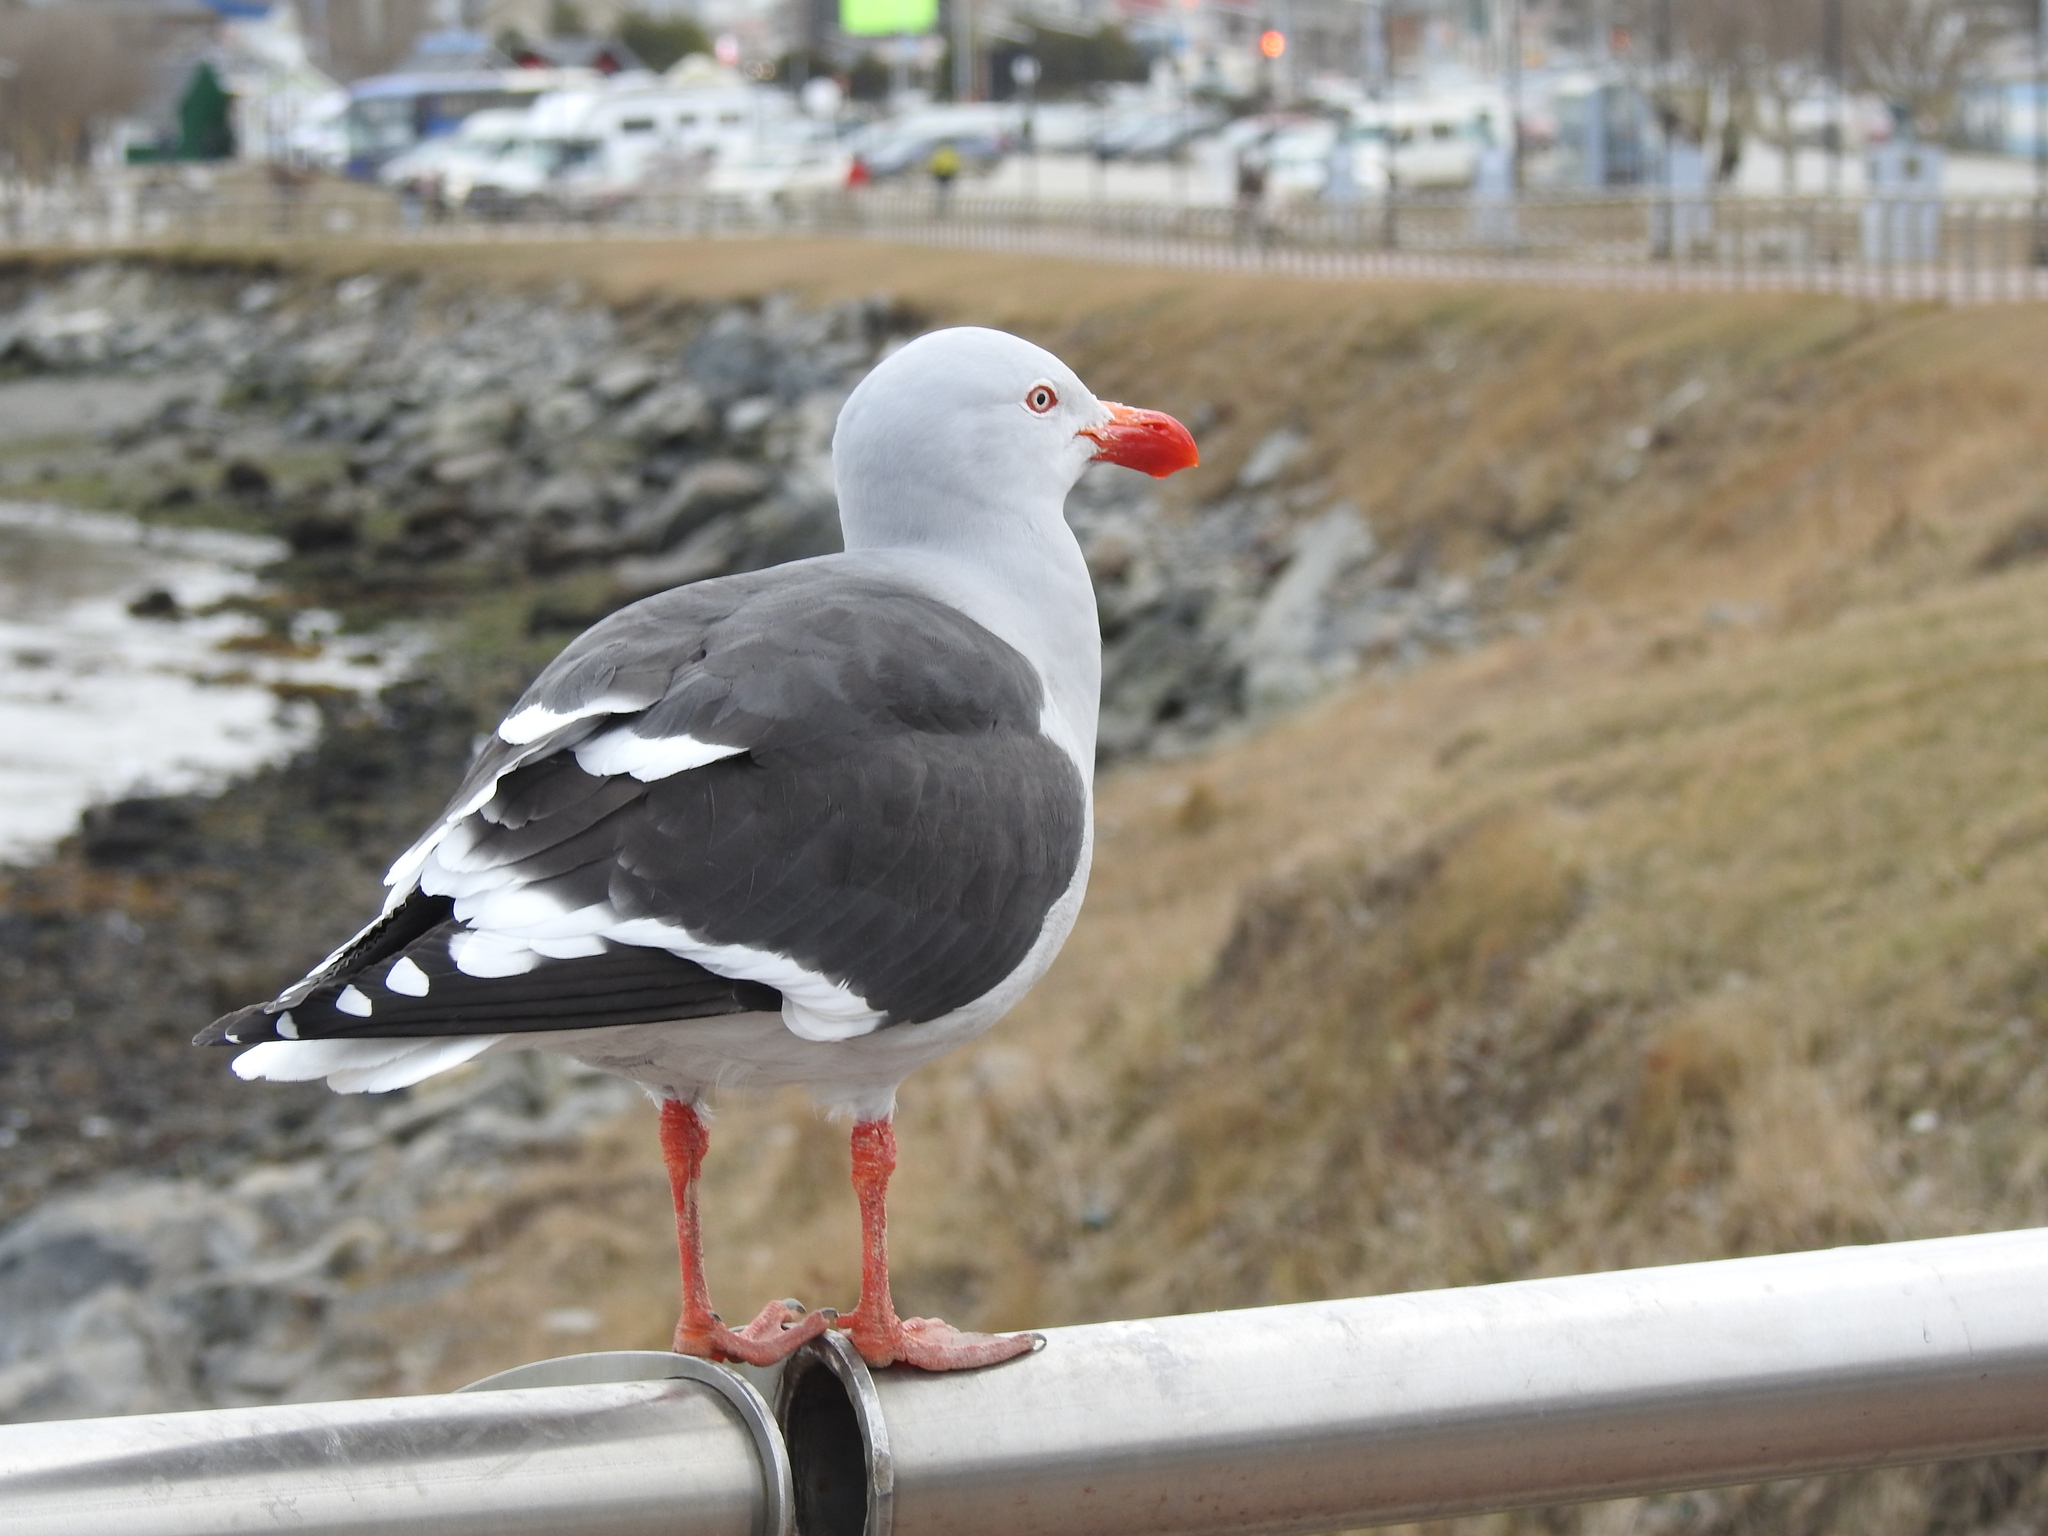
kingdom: Animalia
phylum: Chordata
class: Aves
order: Charadriiformes
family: Laridae
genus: Leucophaeus
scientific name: Leucophaeus scoresbii
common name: Dolphin gull
